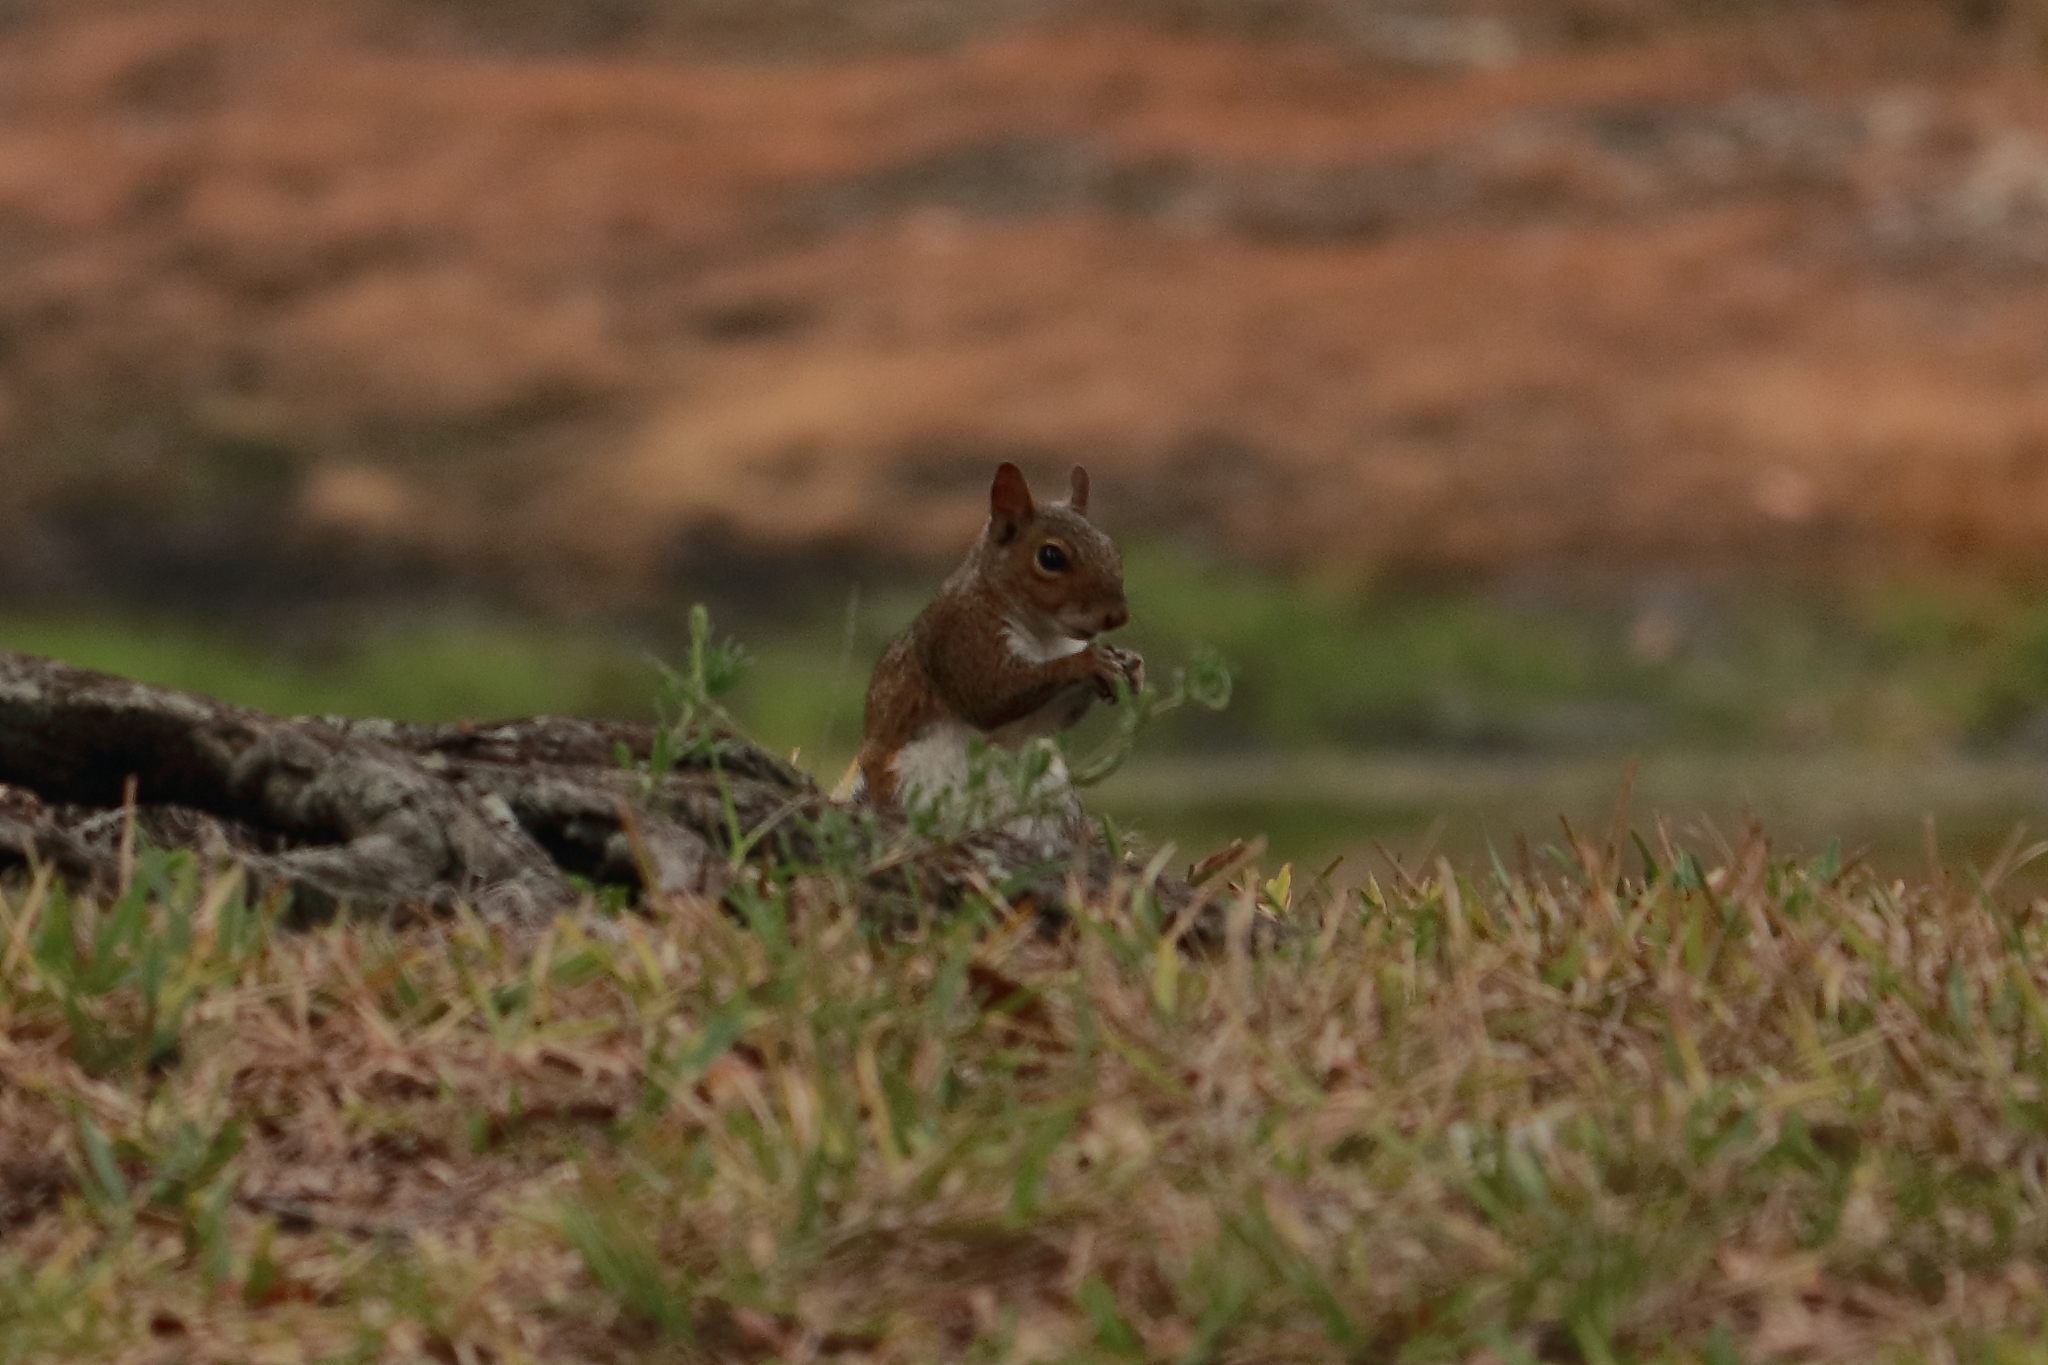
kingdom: Animalia
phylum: Chordata
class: Mammalia
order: Rodentia
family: Sciuridae
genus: Sciurus
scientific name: Sciurus carolinensis
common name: Eastern gray squirrel
